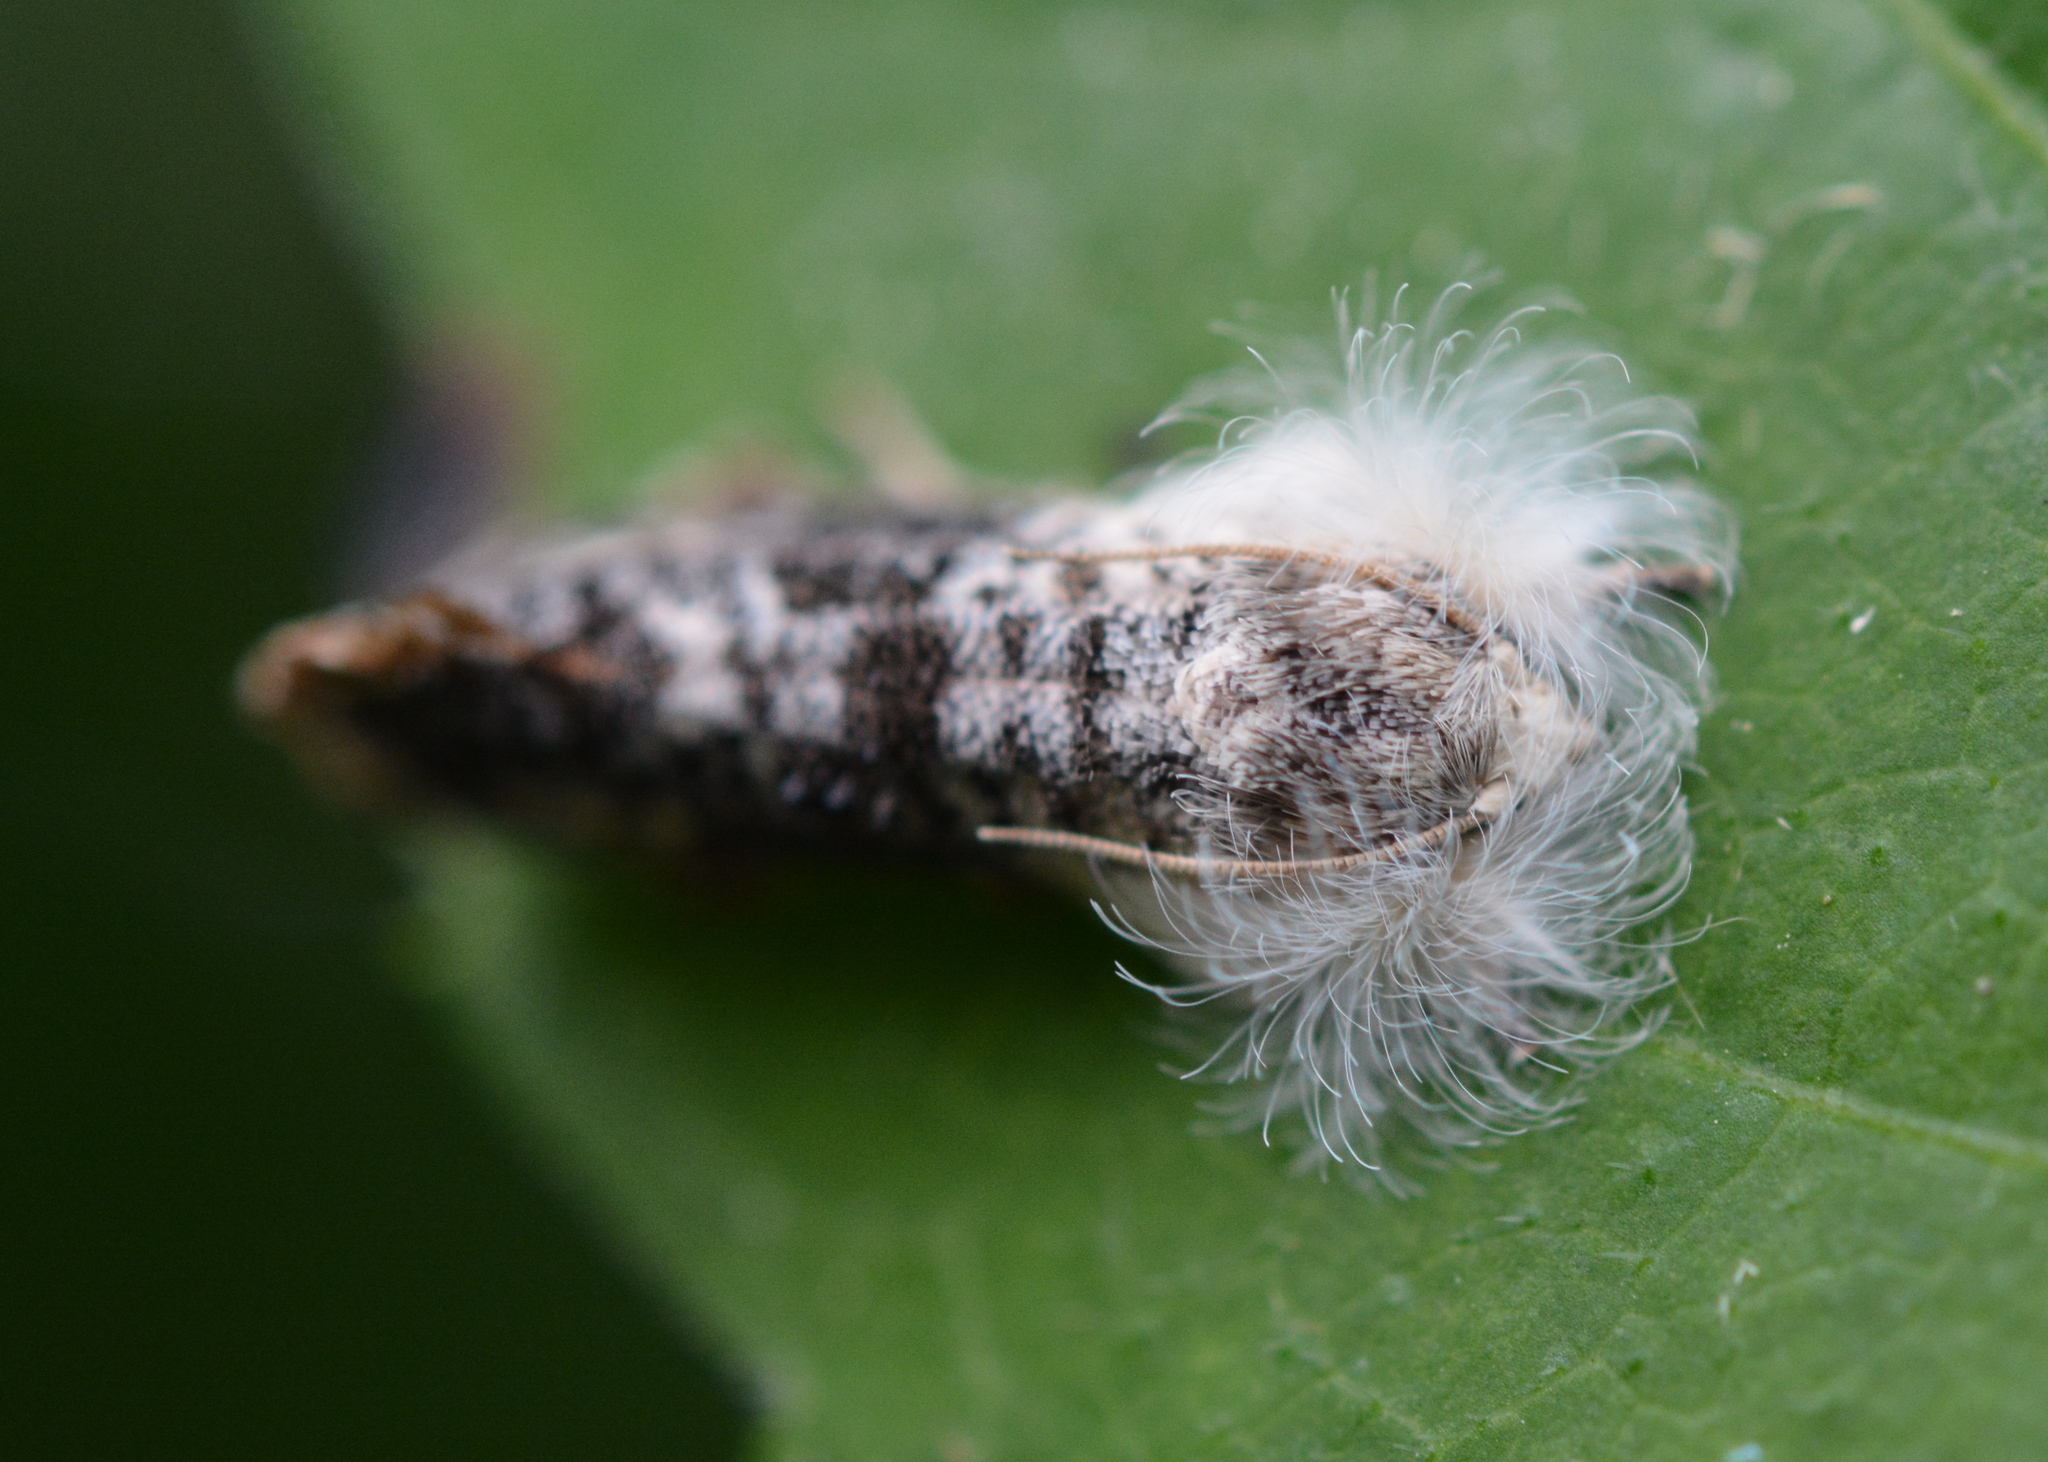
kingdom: Animalia
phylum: Arthropoda
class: Insecta
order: Lepidoptera
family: Tineidae
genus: Acrolophus
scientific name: Acrolophus mycetophagus
